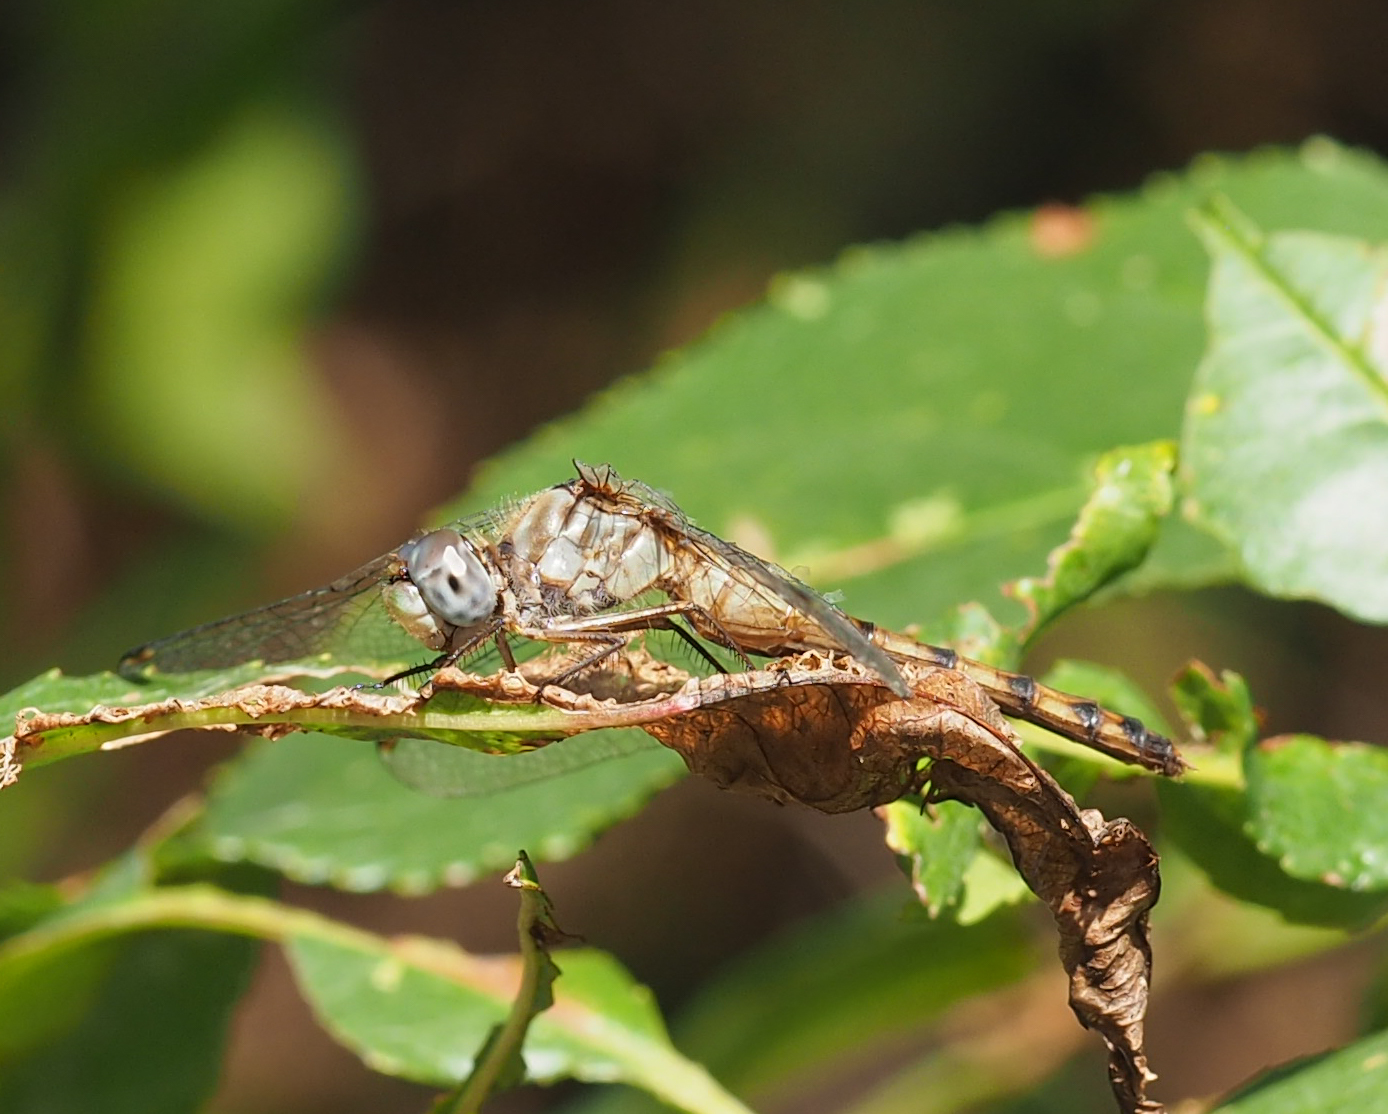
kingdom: Animalia
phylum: Arthropoda
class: Insecta
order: Odonata
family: Libellulidae
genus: Sympetrum
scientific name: Sympetrum ambiguum
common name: Blue-faced meadowhawk
